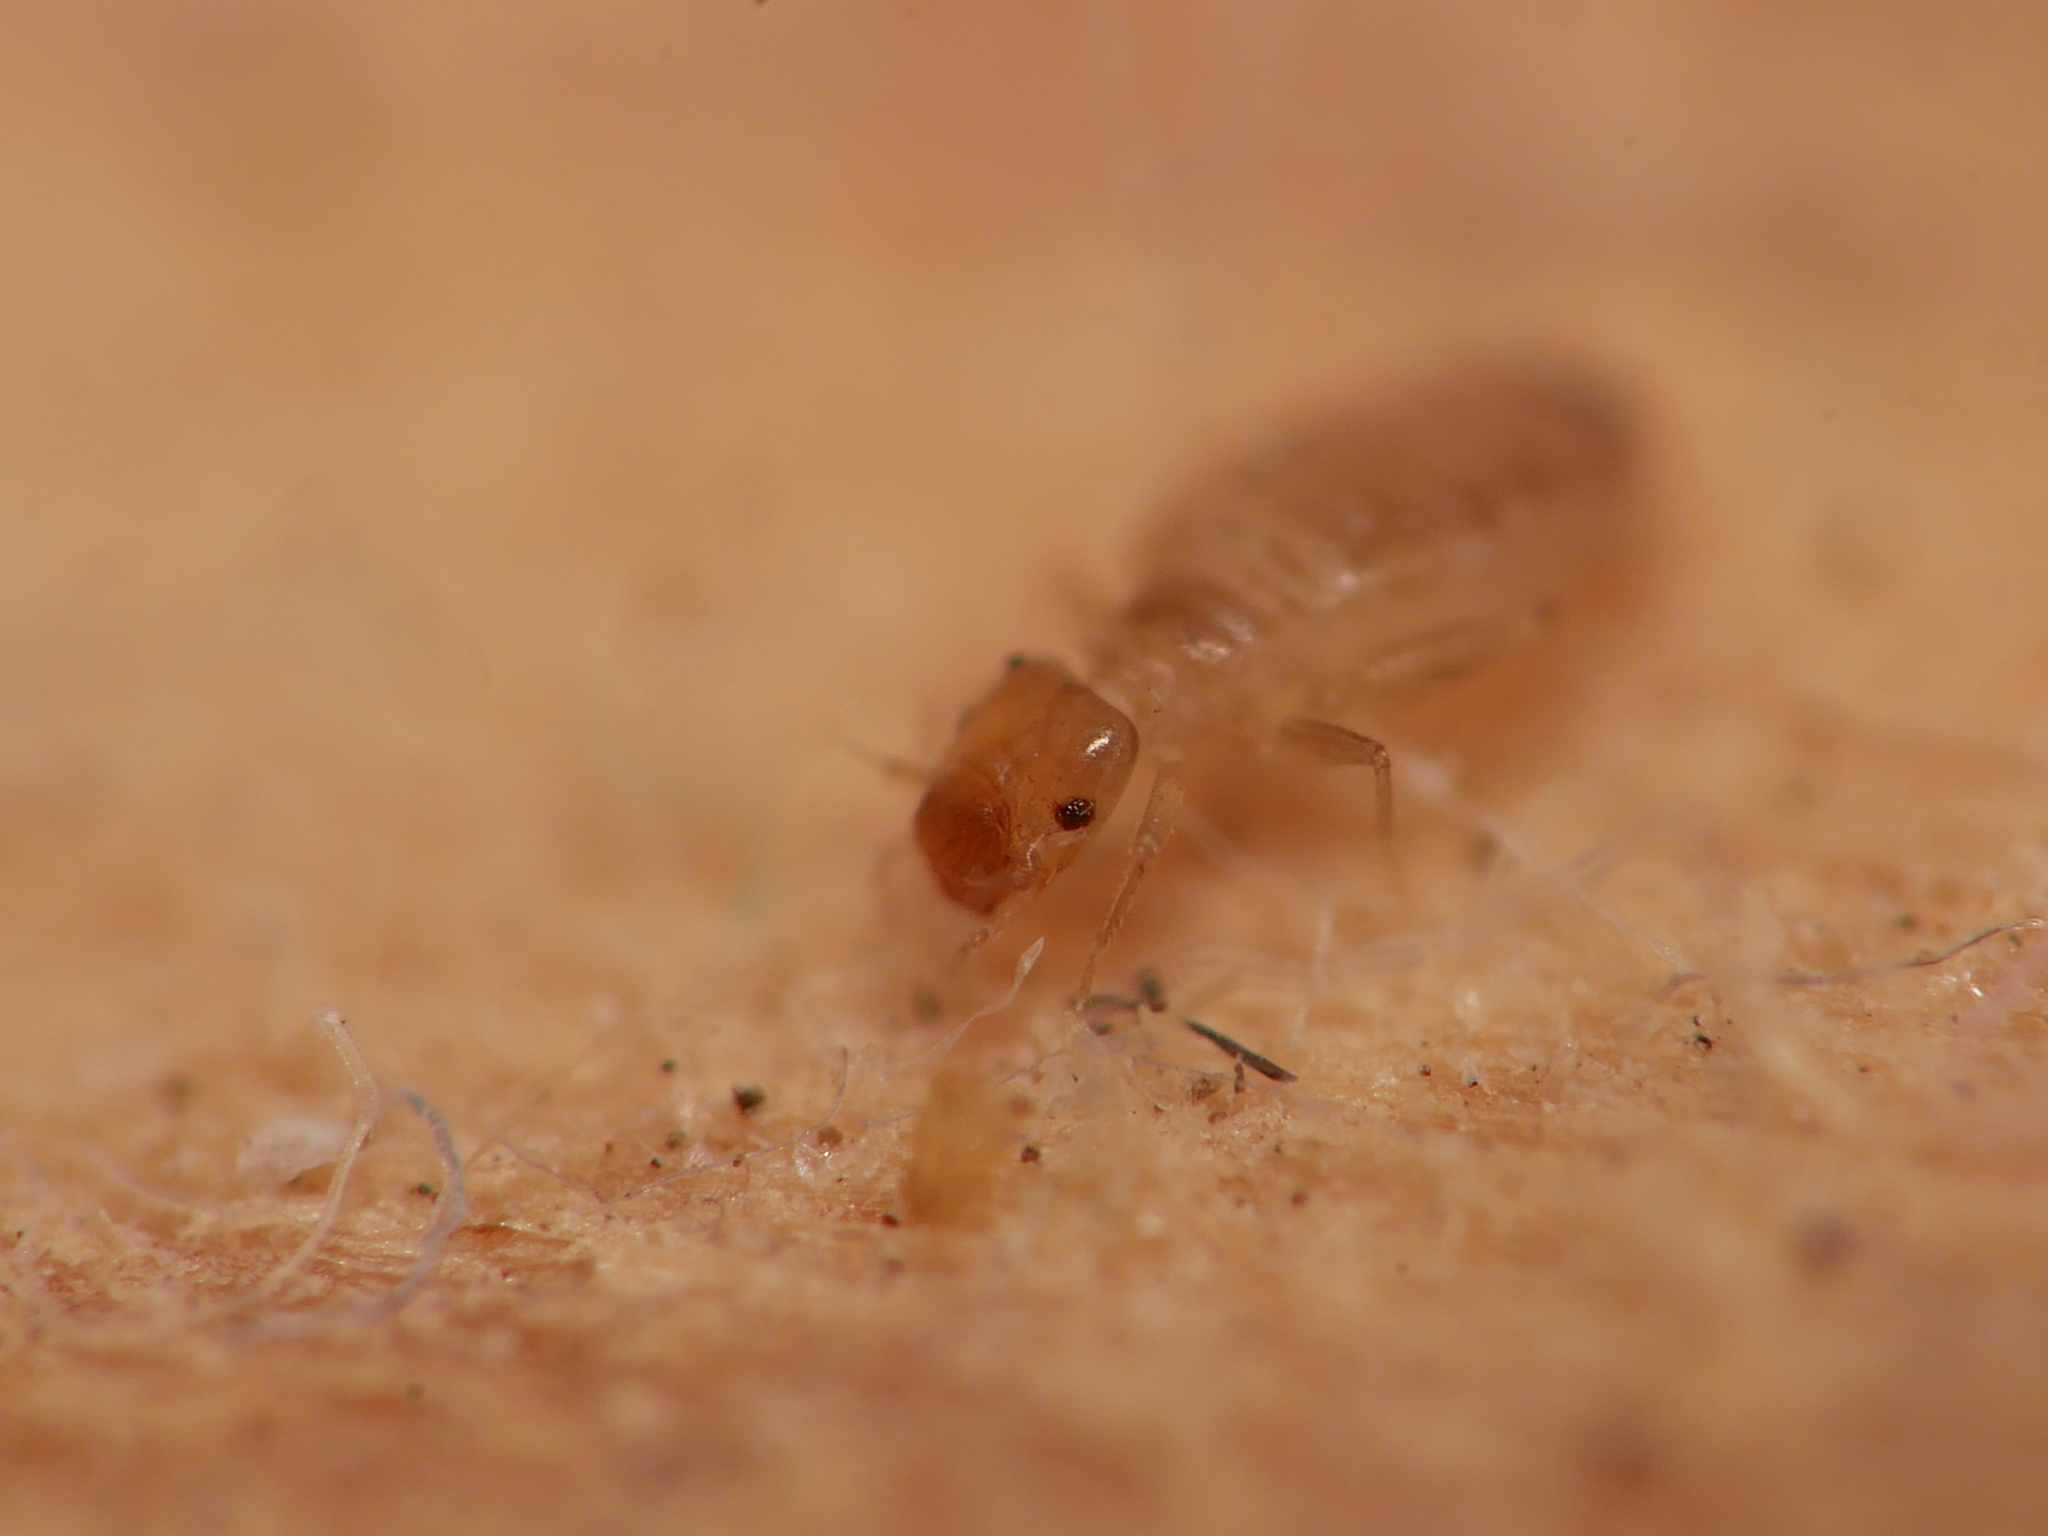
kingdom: Animalia
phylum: Arthropoda
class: Insecta
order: Psocodea
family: Liposcelididae
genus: Liposcelis
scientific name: Liposcelis bostrychophila
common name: Bark lice
